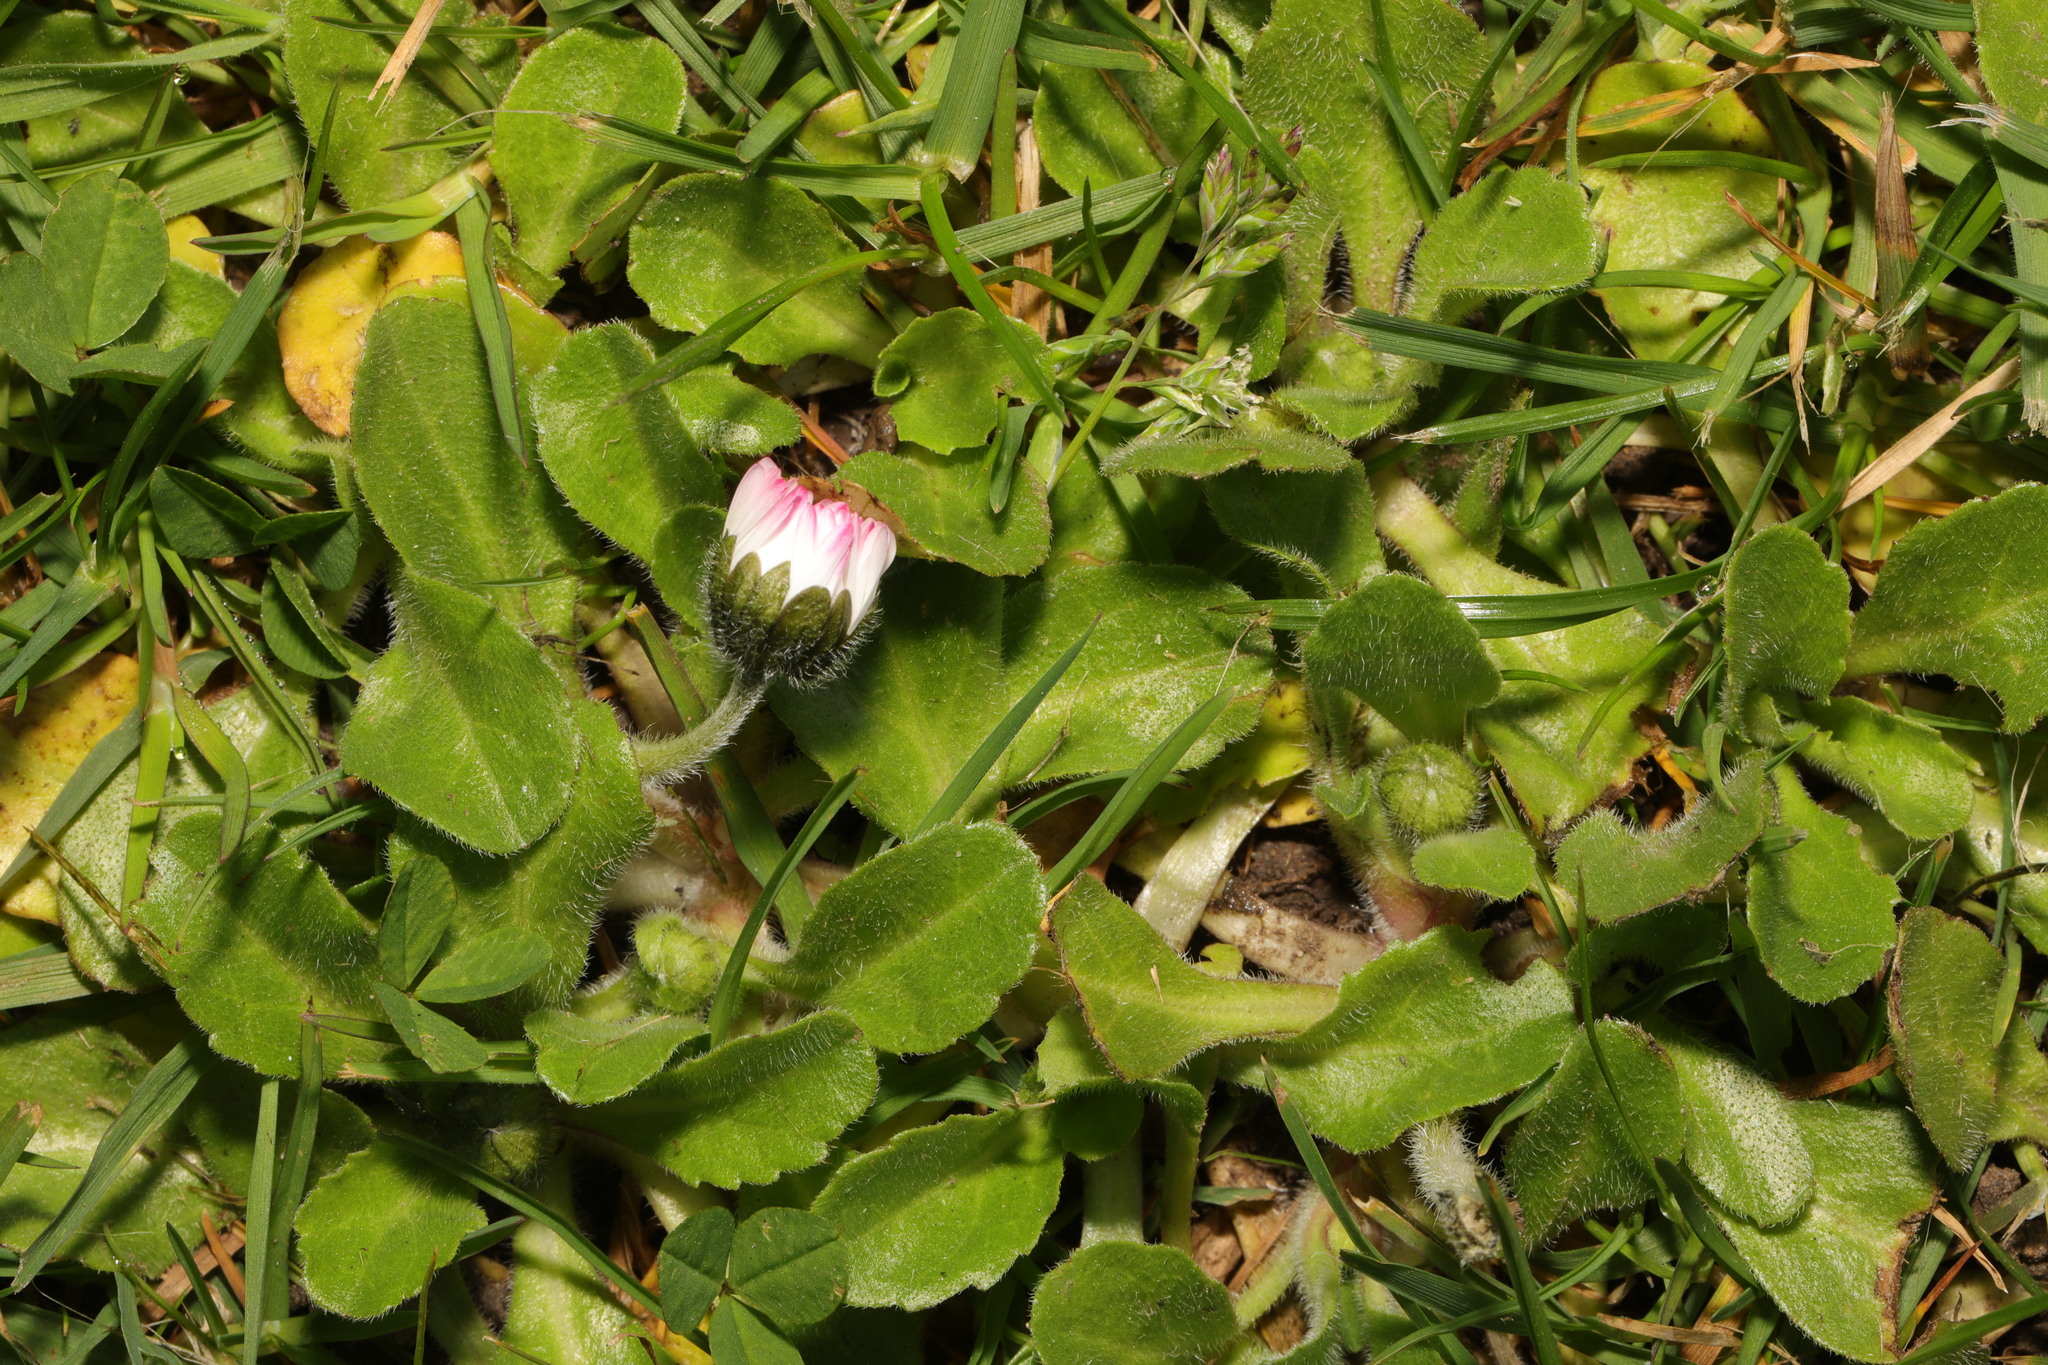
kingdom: Plantae
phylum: Tracheophyta
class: Magnoliopsida
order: Asterales
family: Asteraceae
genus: Bellis
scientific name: Bellis perennis
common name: Lawndaisy
